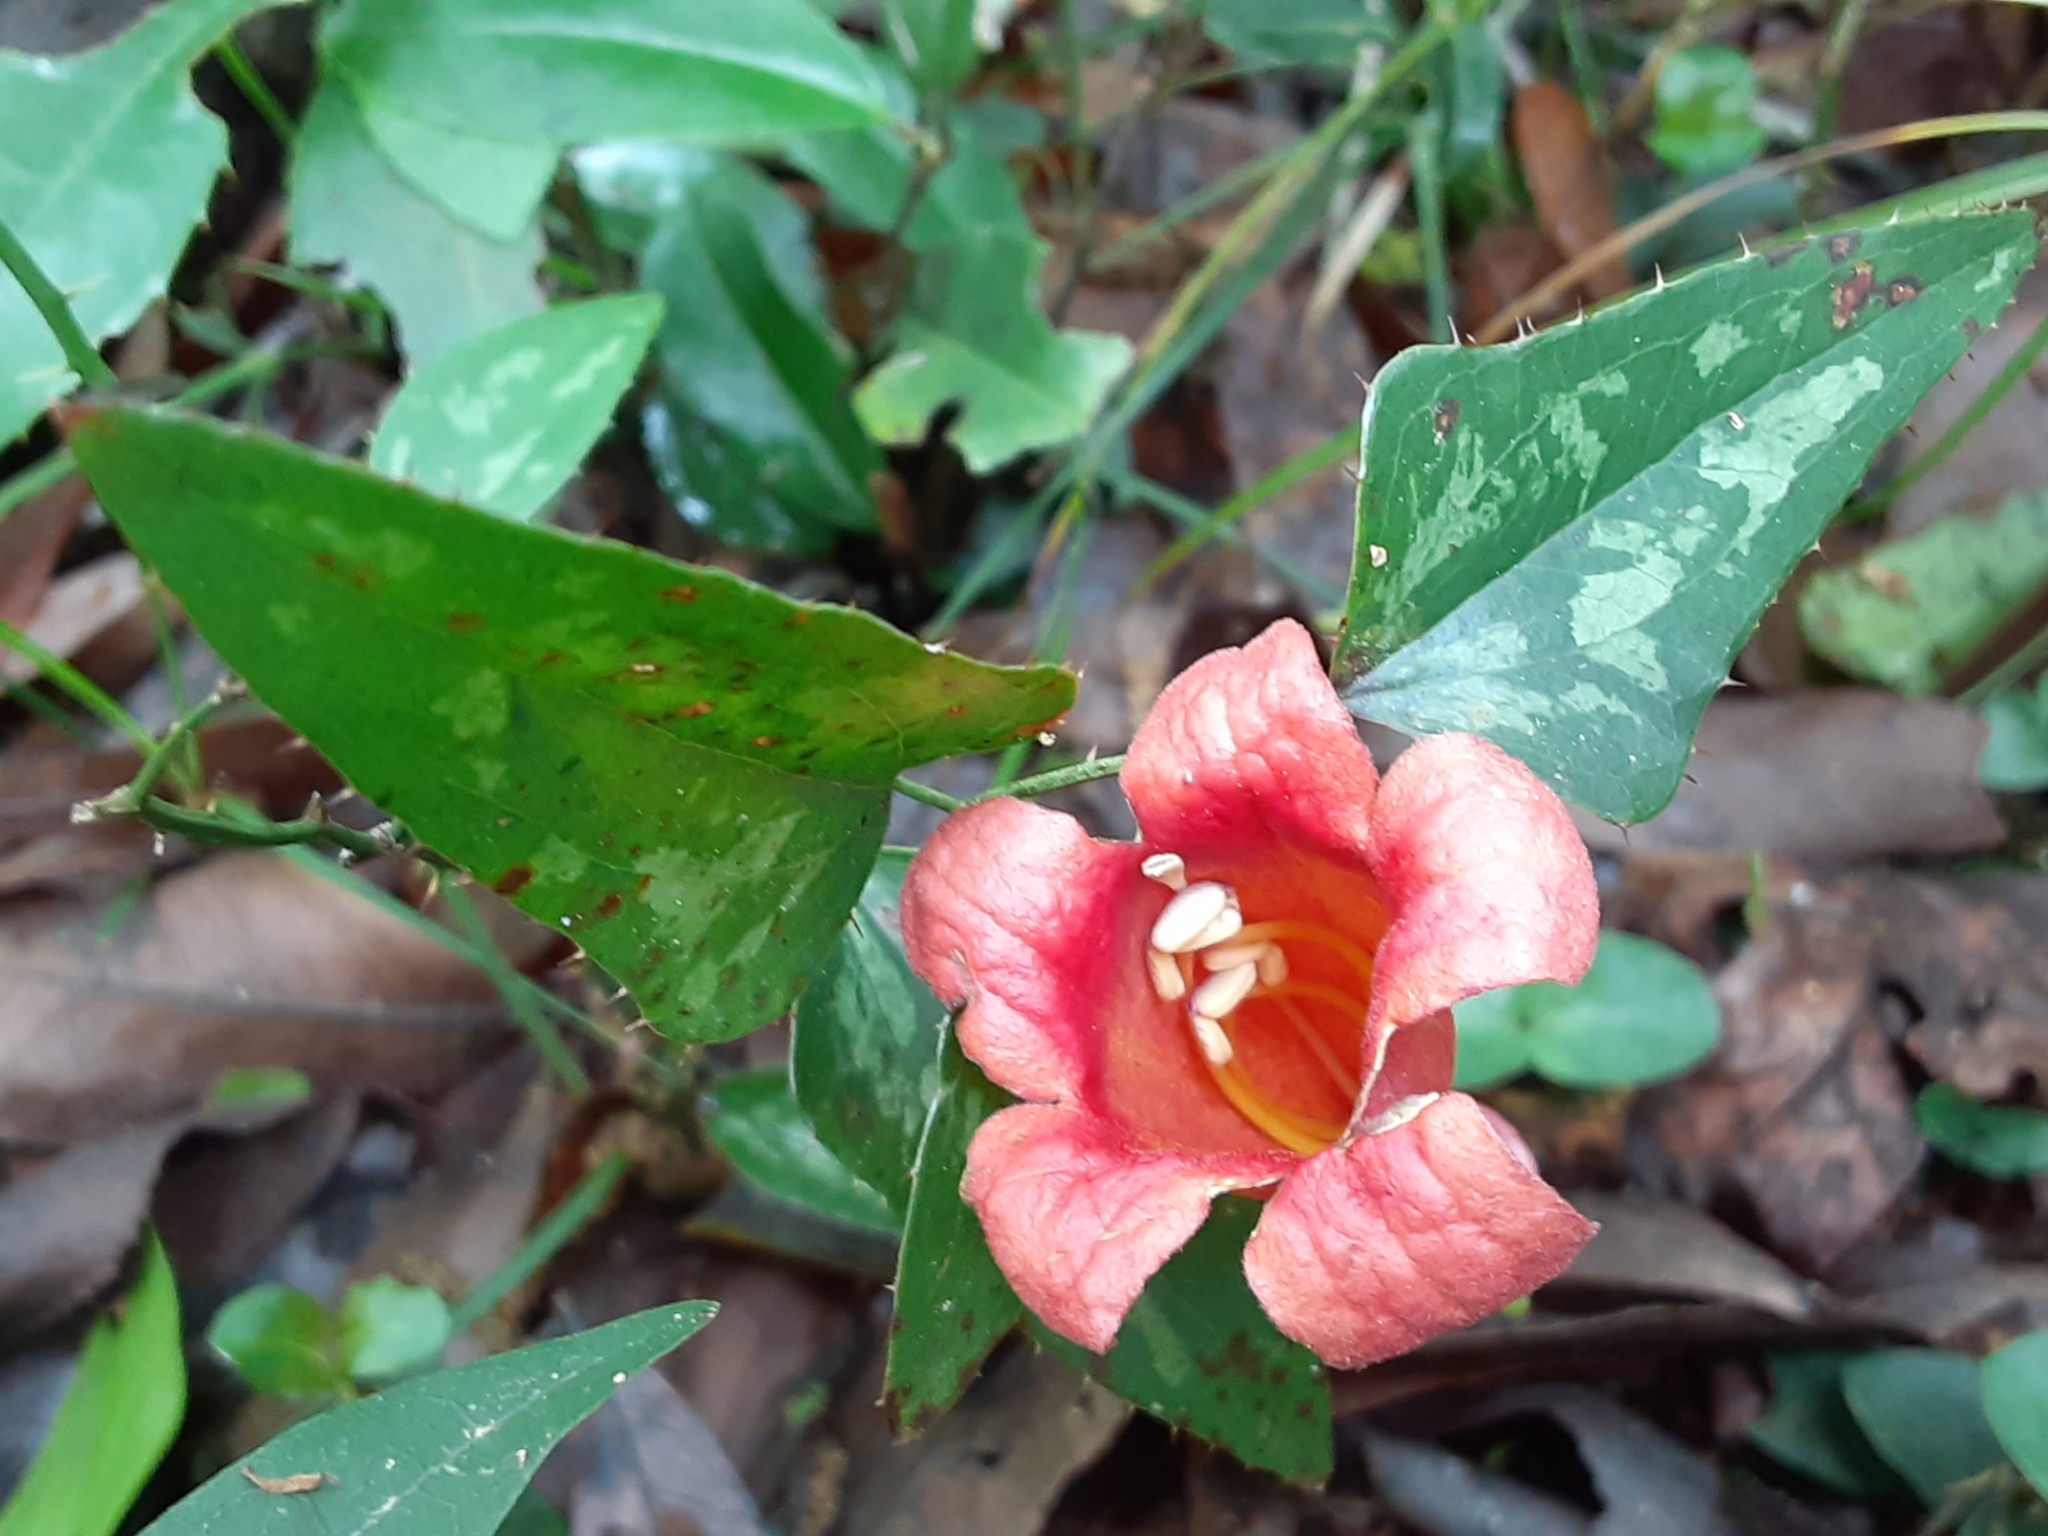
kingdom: Plantae
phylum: Tracheophyta
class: Magnoliopsida
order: Lamiales
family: Bignoniaceae
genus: Bignonia
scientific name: Bignonia capreolata
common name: Crossvine
